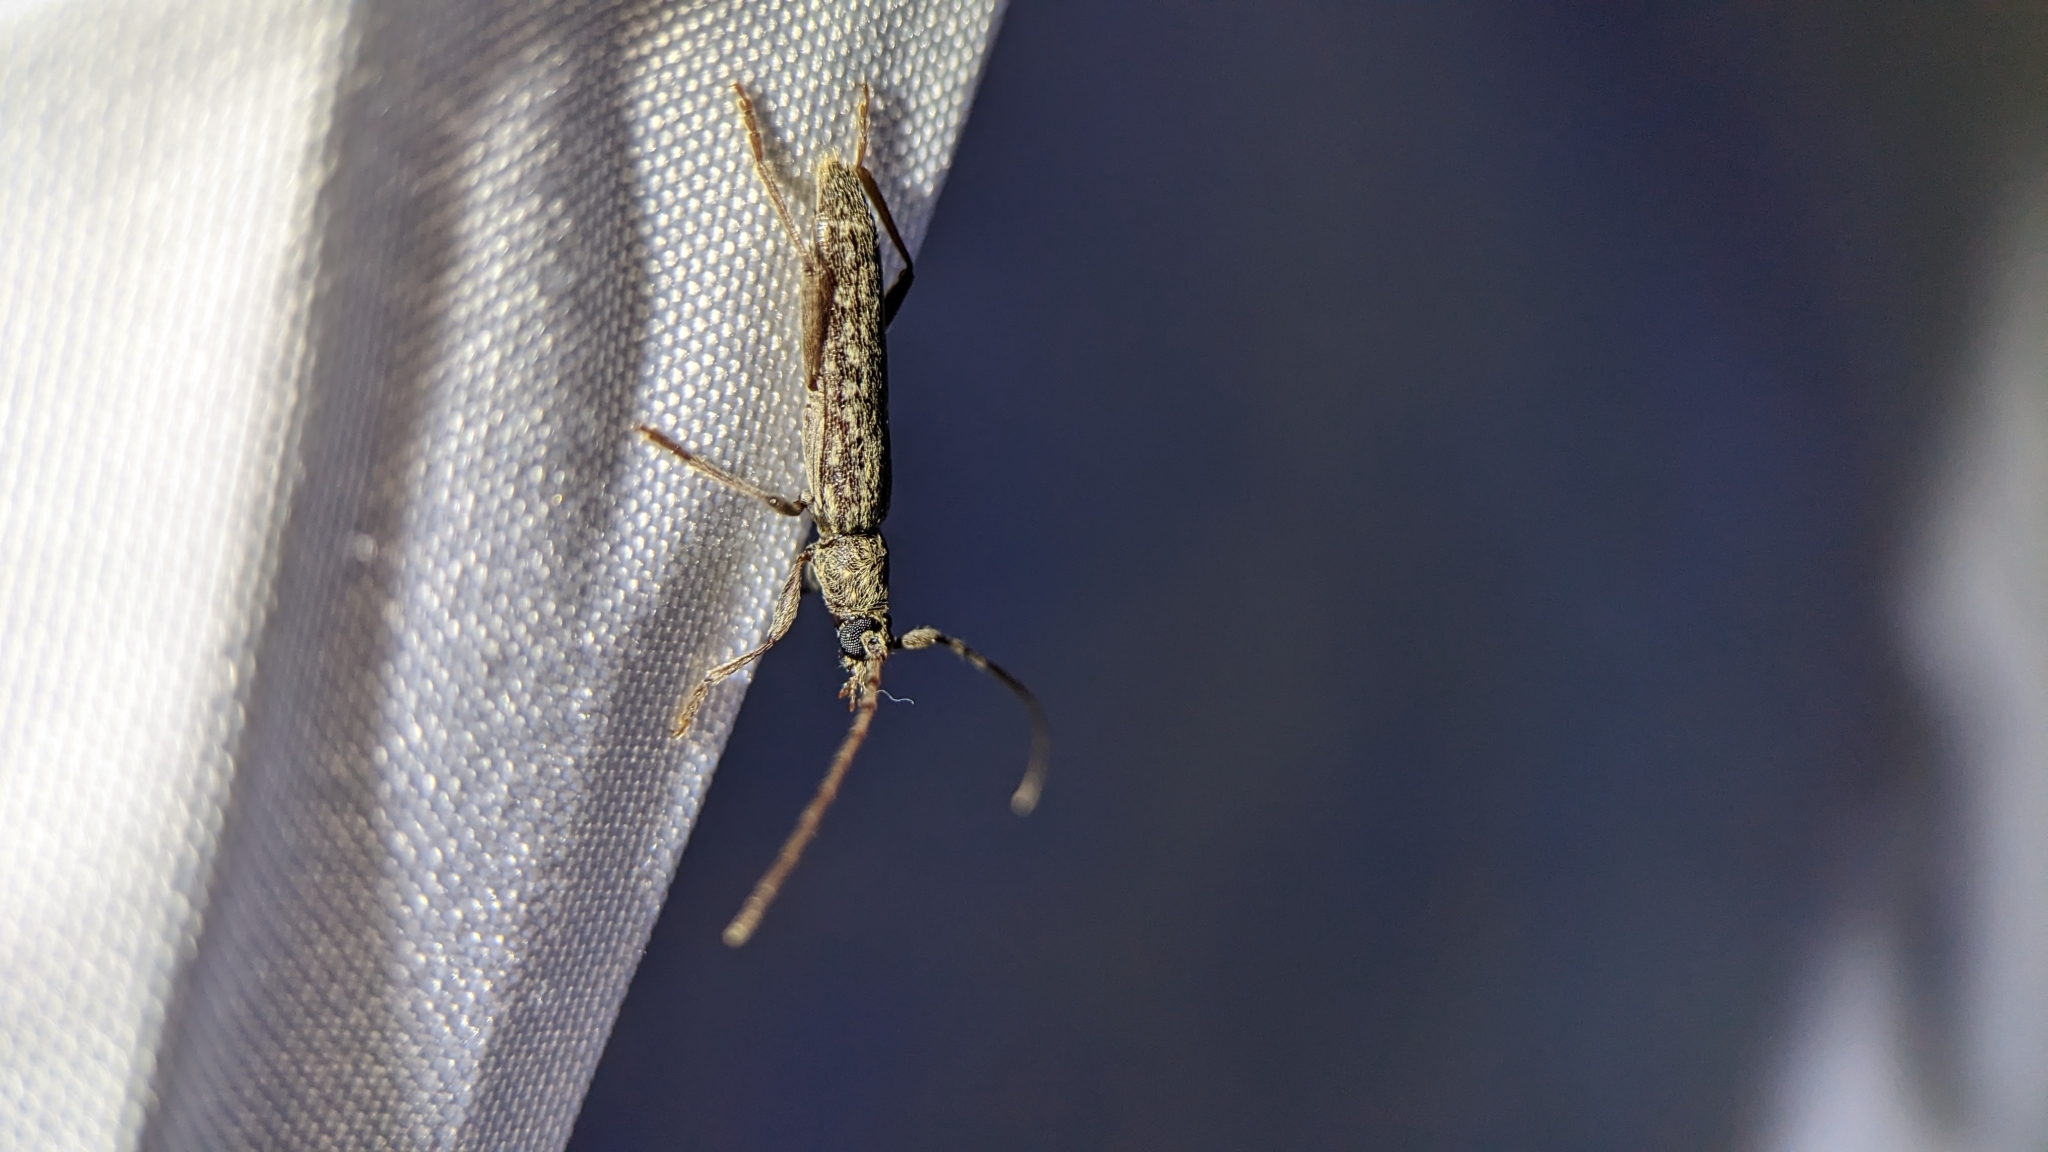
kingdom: Animalia
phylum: Arthropoda
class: Insecta
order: Coleoptera
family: Cerambycidae
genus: Anelaphus
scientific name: Anelaphus villosus
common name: Twig pruner
